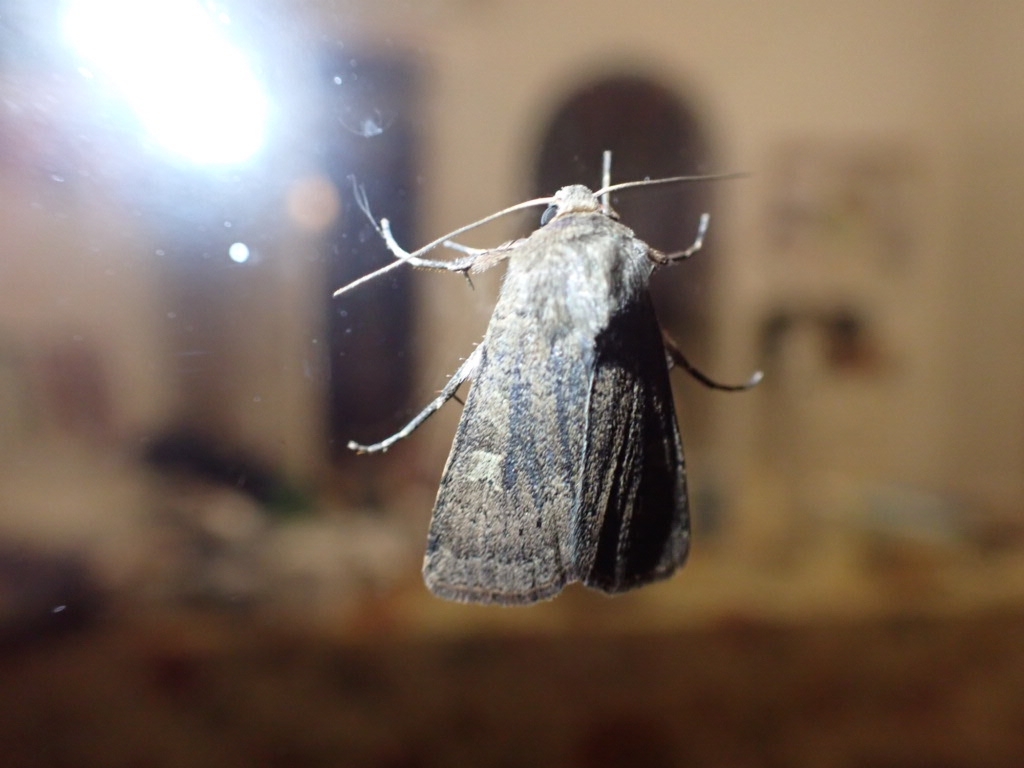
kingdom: Animalia
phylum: Arthropoda
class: Insecta
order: Lepidoptera
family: Noctuidae
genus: Xestia
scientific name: Xestia xanthographa
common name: Square-spot rustic
